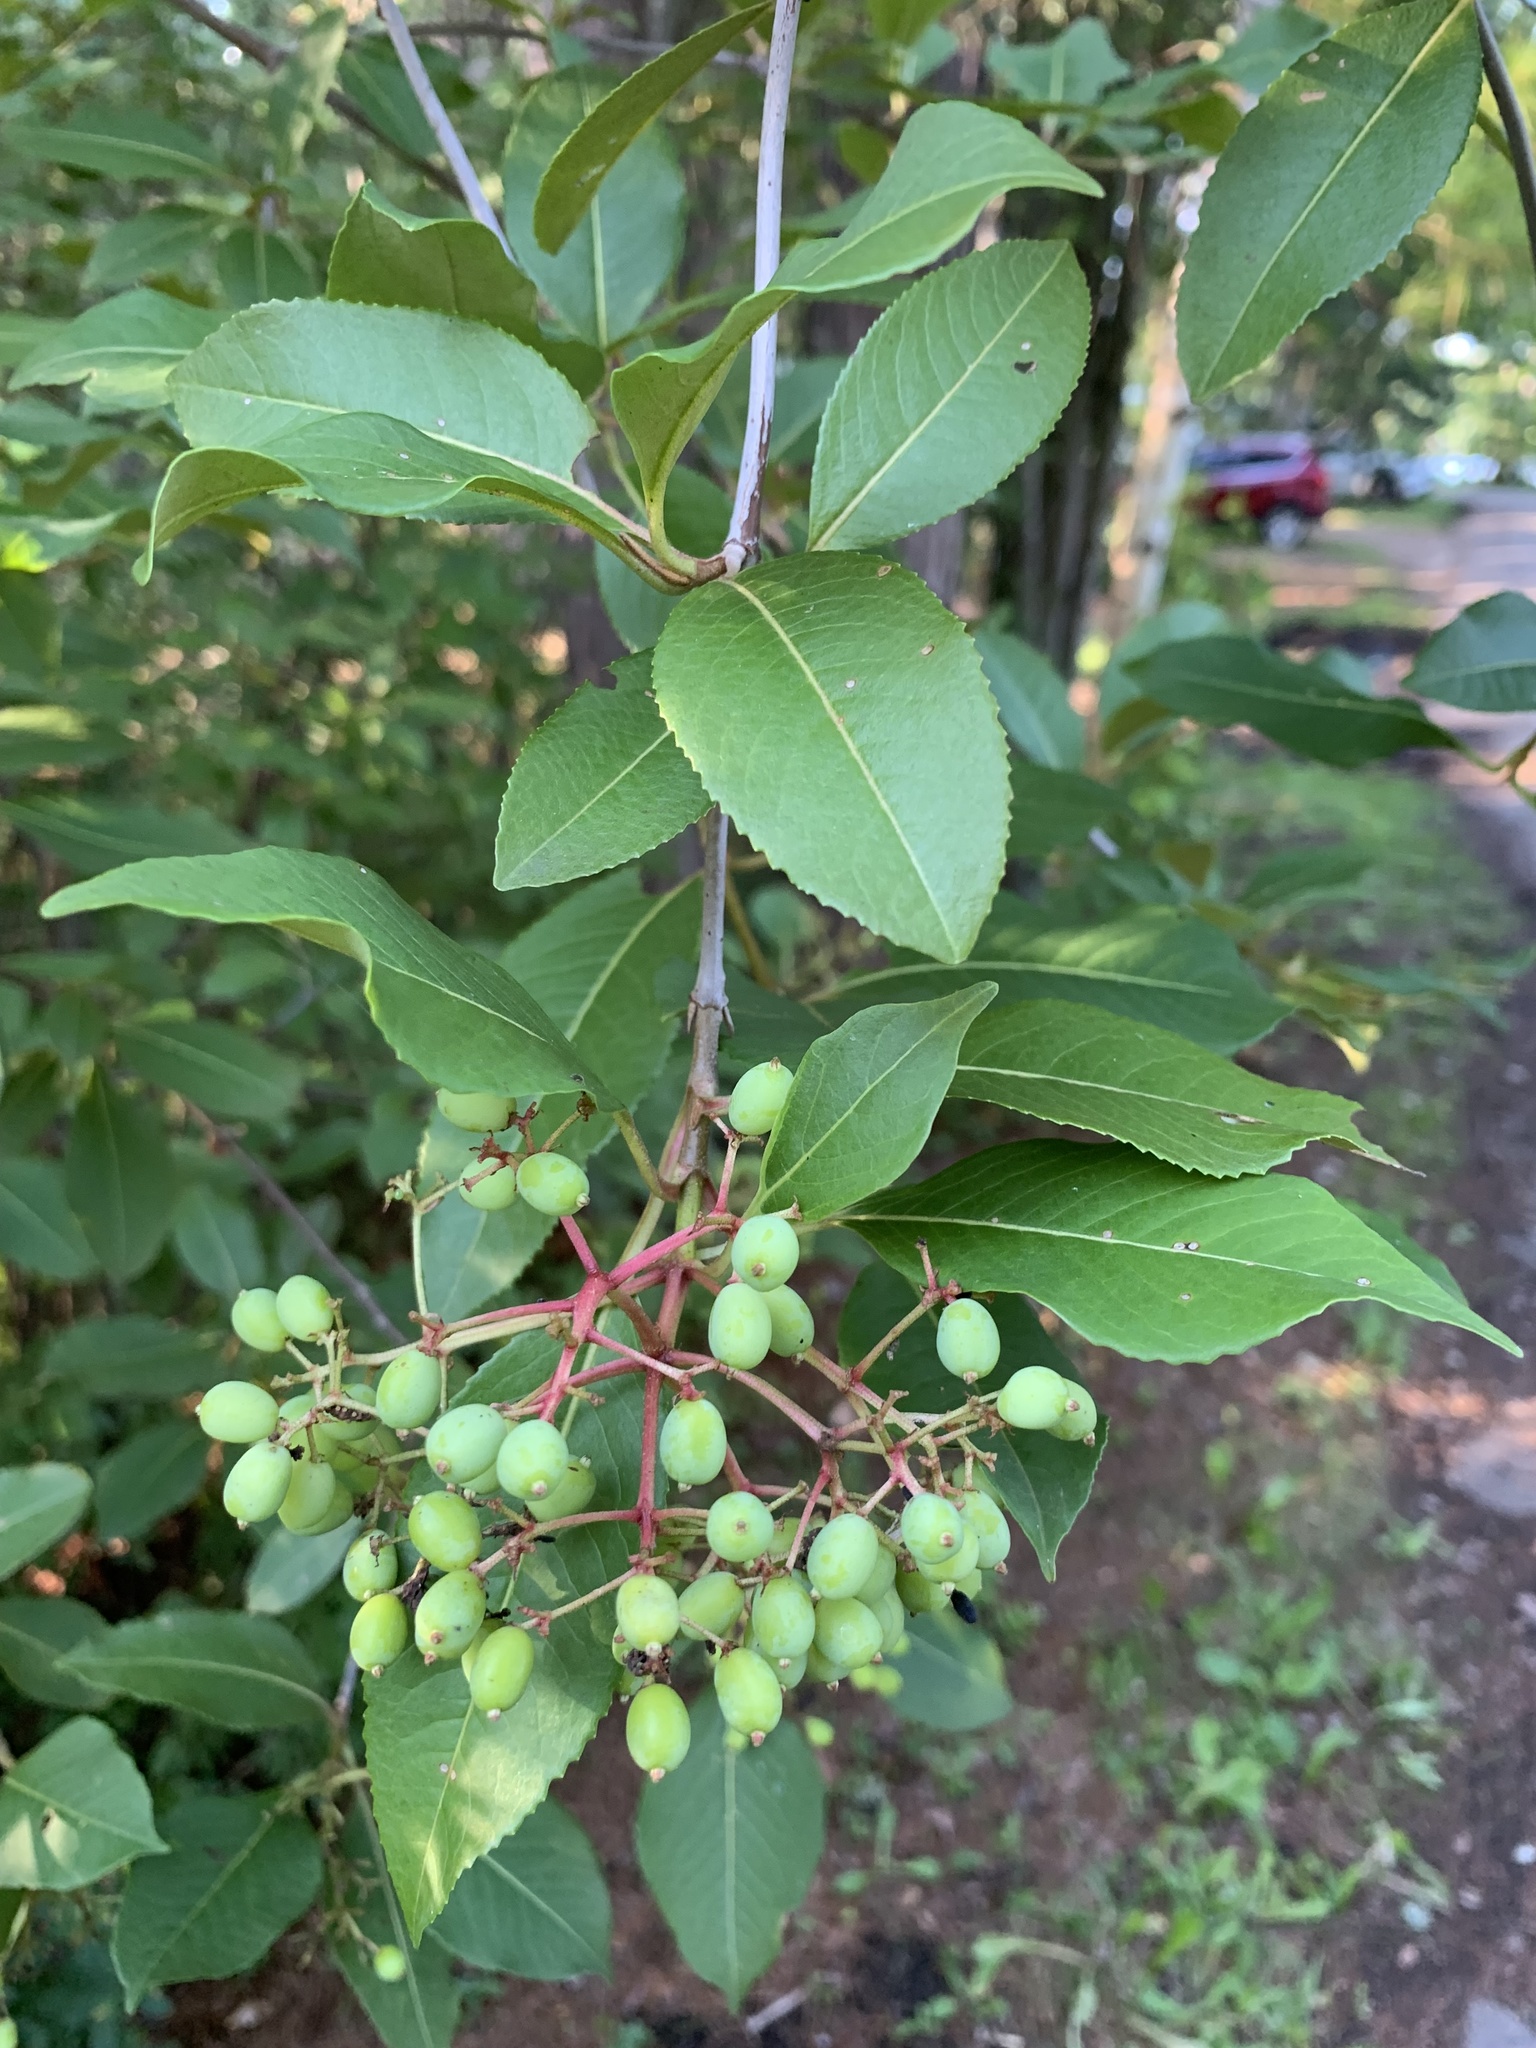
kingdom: Plantae
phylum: Tracheophyta
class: Magnoliopsida
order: Dipsacales
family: Viburnaceae
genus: Viburnum
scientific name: Viburnum cassinoides
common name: Swamp haw
